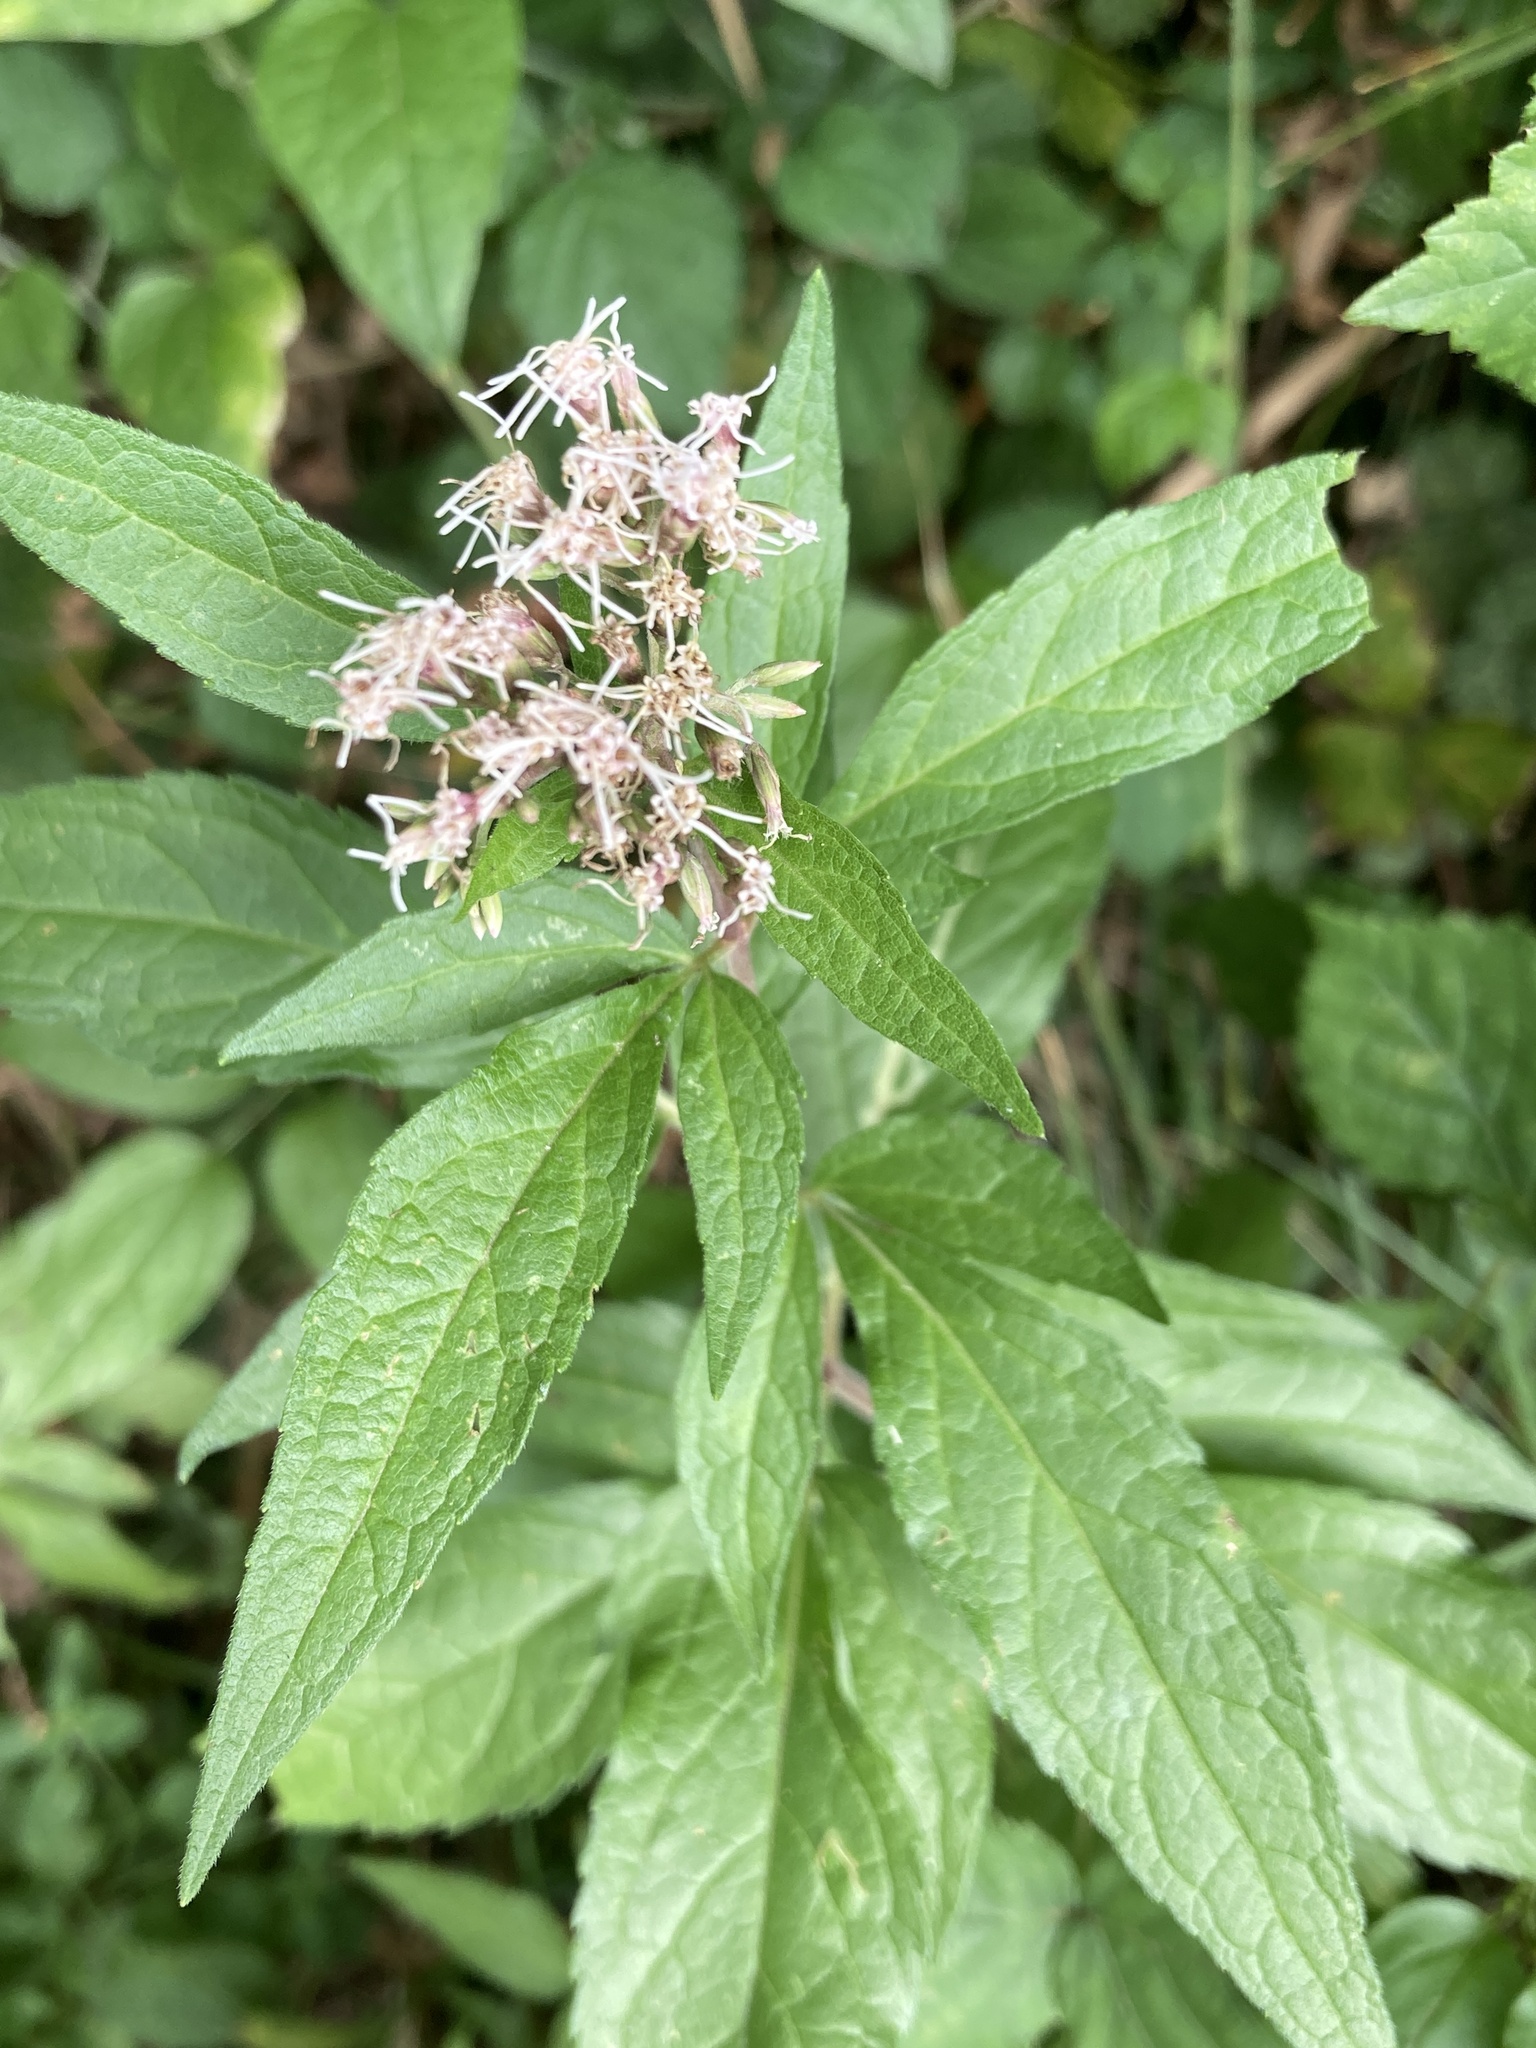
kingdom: Plantae
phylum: Tracheophyta
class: Magnoliopsida
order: Asterales
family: Asteraceae
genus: Eupatorium
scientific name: Eupatorium cannabinum
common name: Hemp-agrimony
